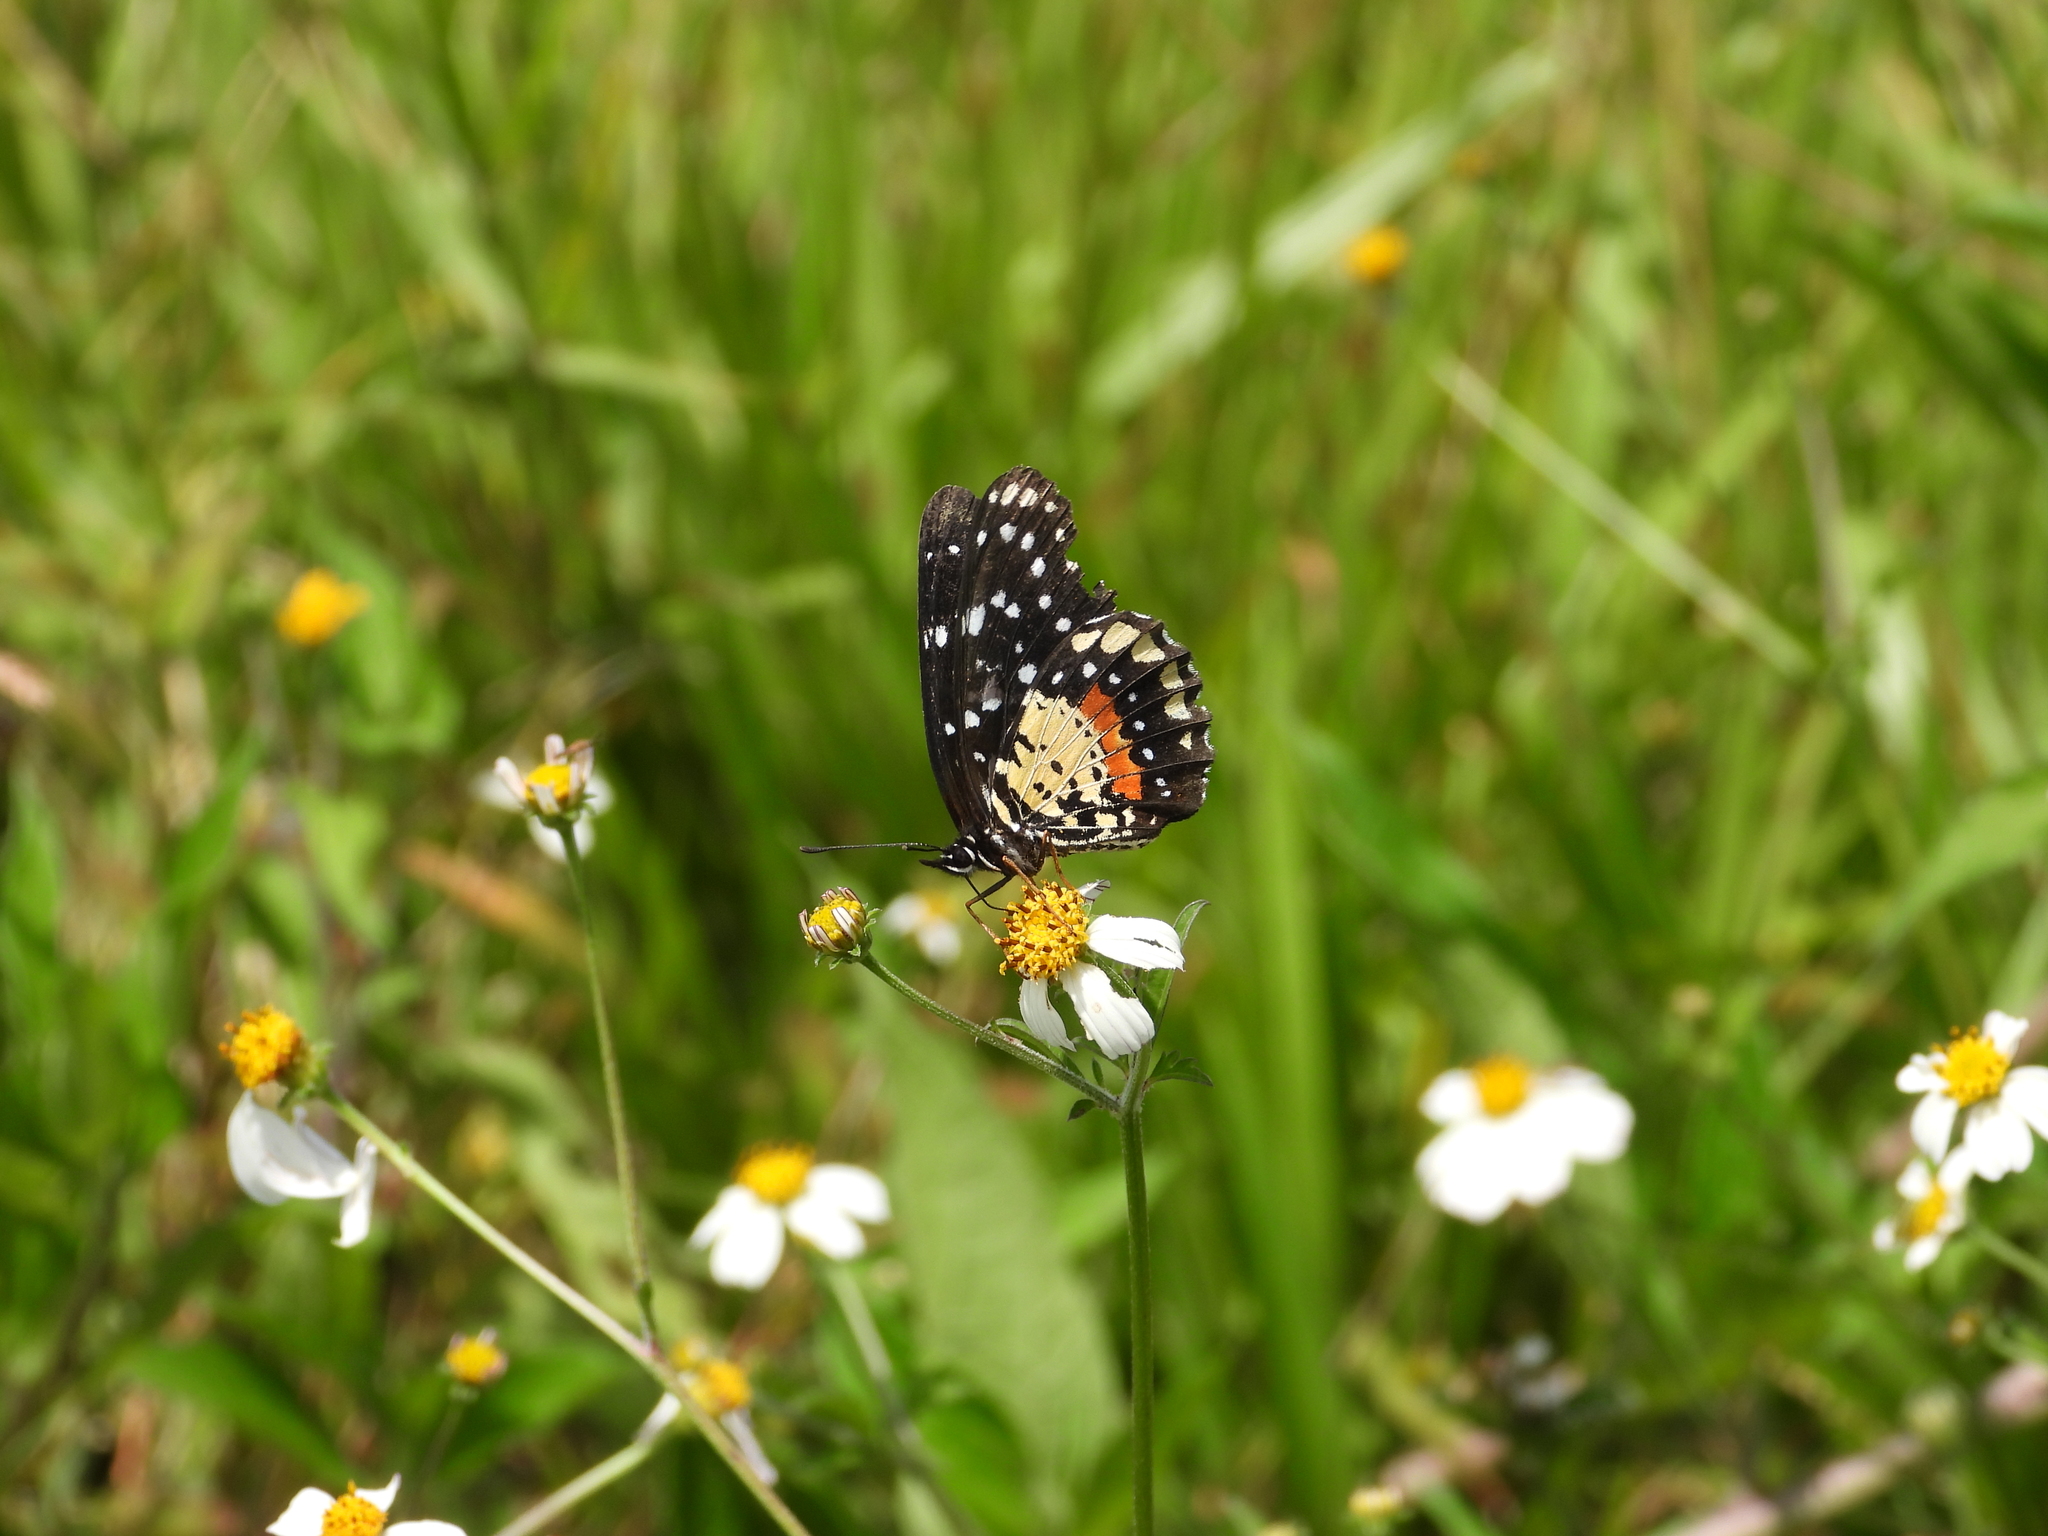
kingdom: Animalia
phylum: Arthropoda
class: Insecta
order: Lepidoptera
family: Nymphalidae
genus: Chlosyne
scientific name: Chlosyne janais
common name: Crimson patch
